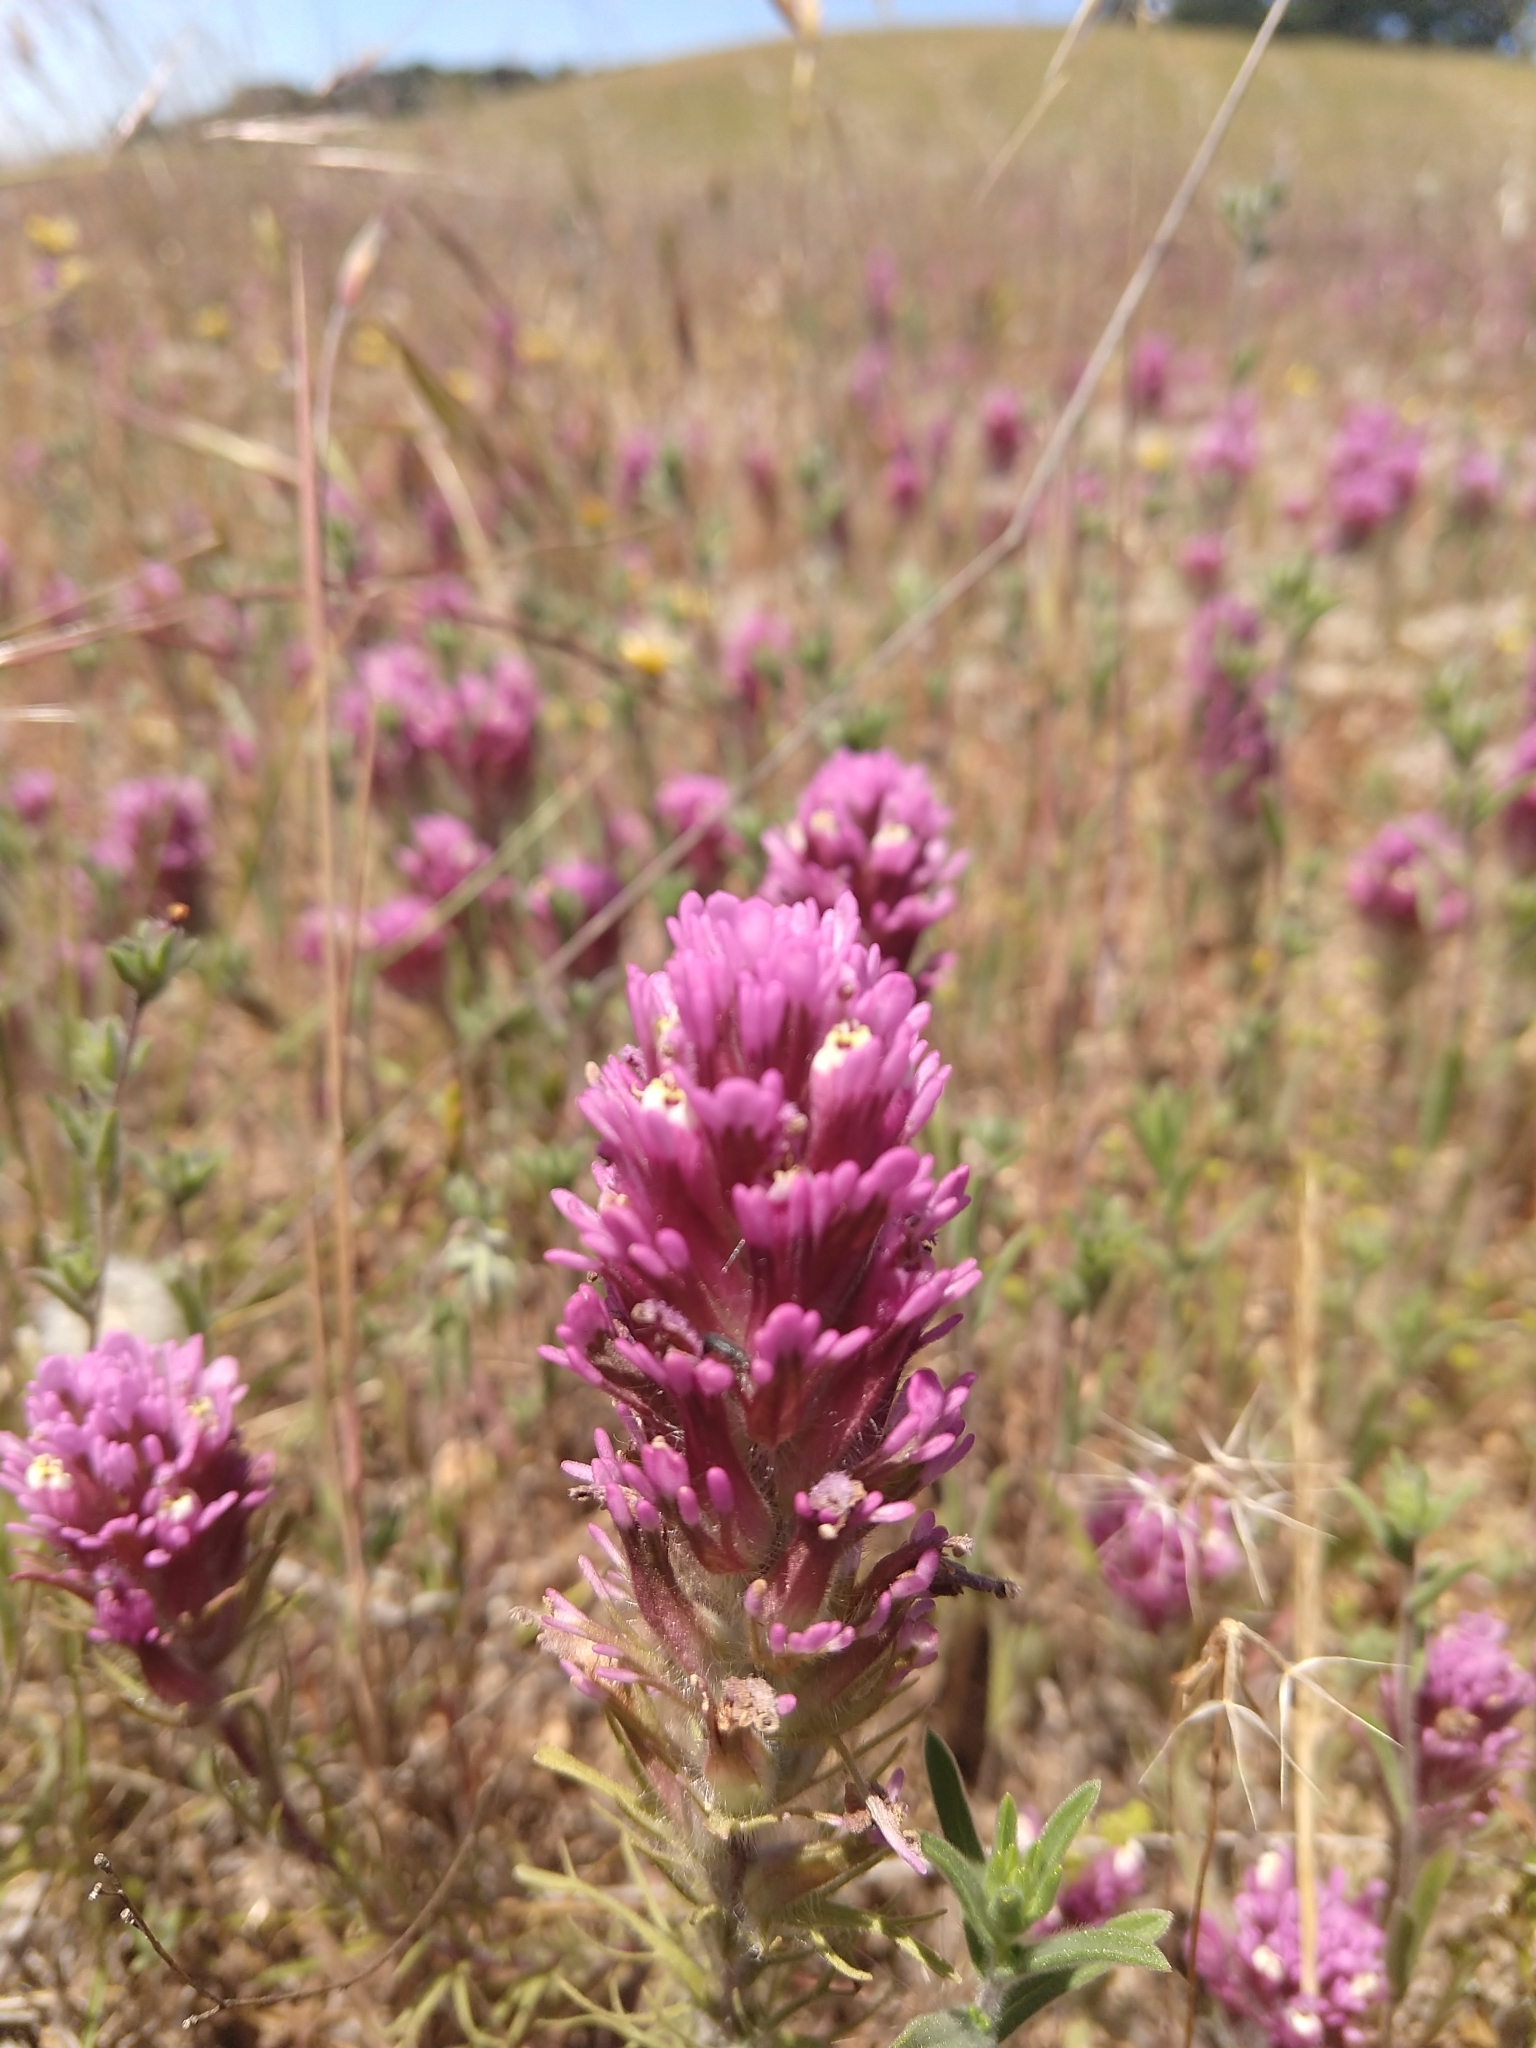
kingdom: Plantae
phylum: Tracheophyta
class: Magnoliopsida
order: Lamiales
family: Orobanchaceae
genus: Castilleja
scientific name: Castilleja exserta
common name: Purple owl-clover
